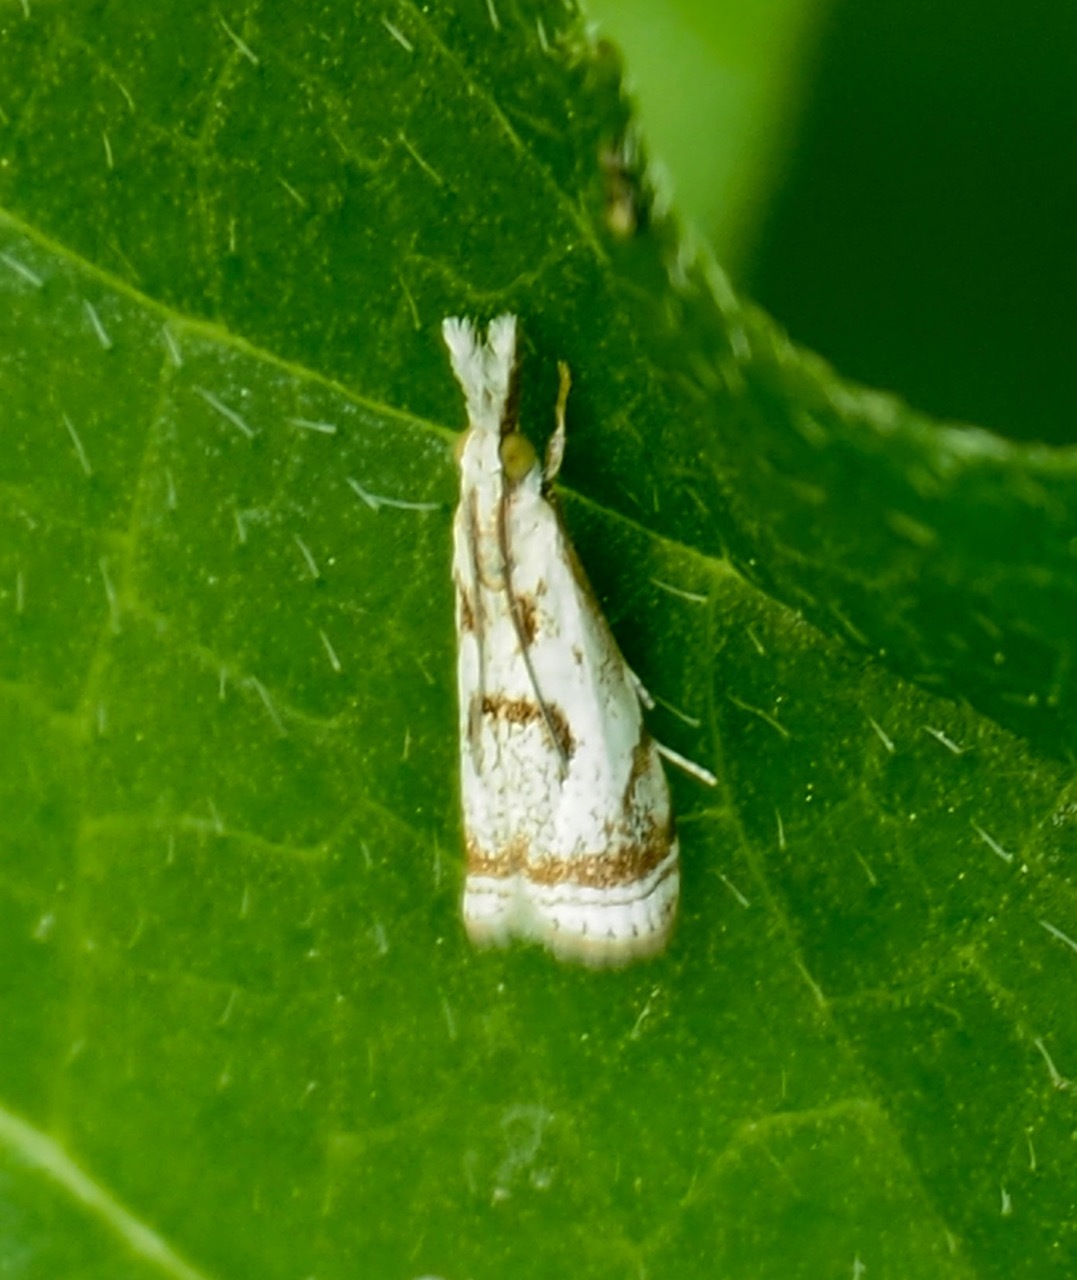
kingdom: Animalia
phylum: Arthropoda
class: Insecta
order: Lepidoptera
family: Crambidae
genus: Microcrambus
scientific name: Microcrambus elegans
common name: Elegant grass-veneer
